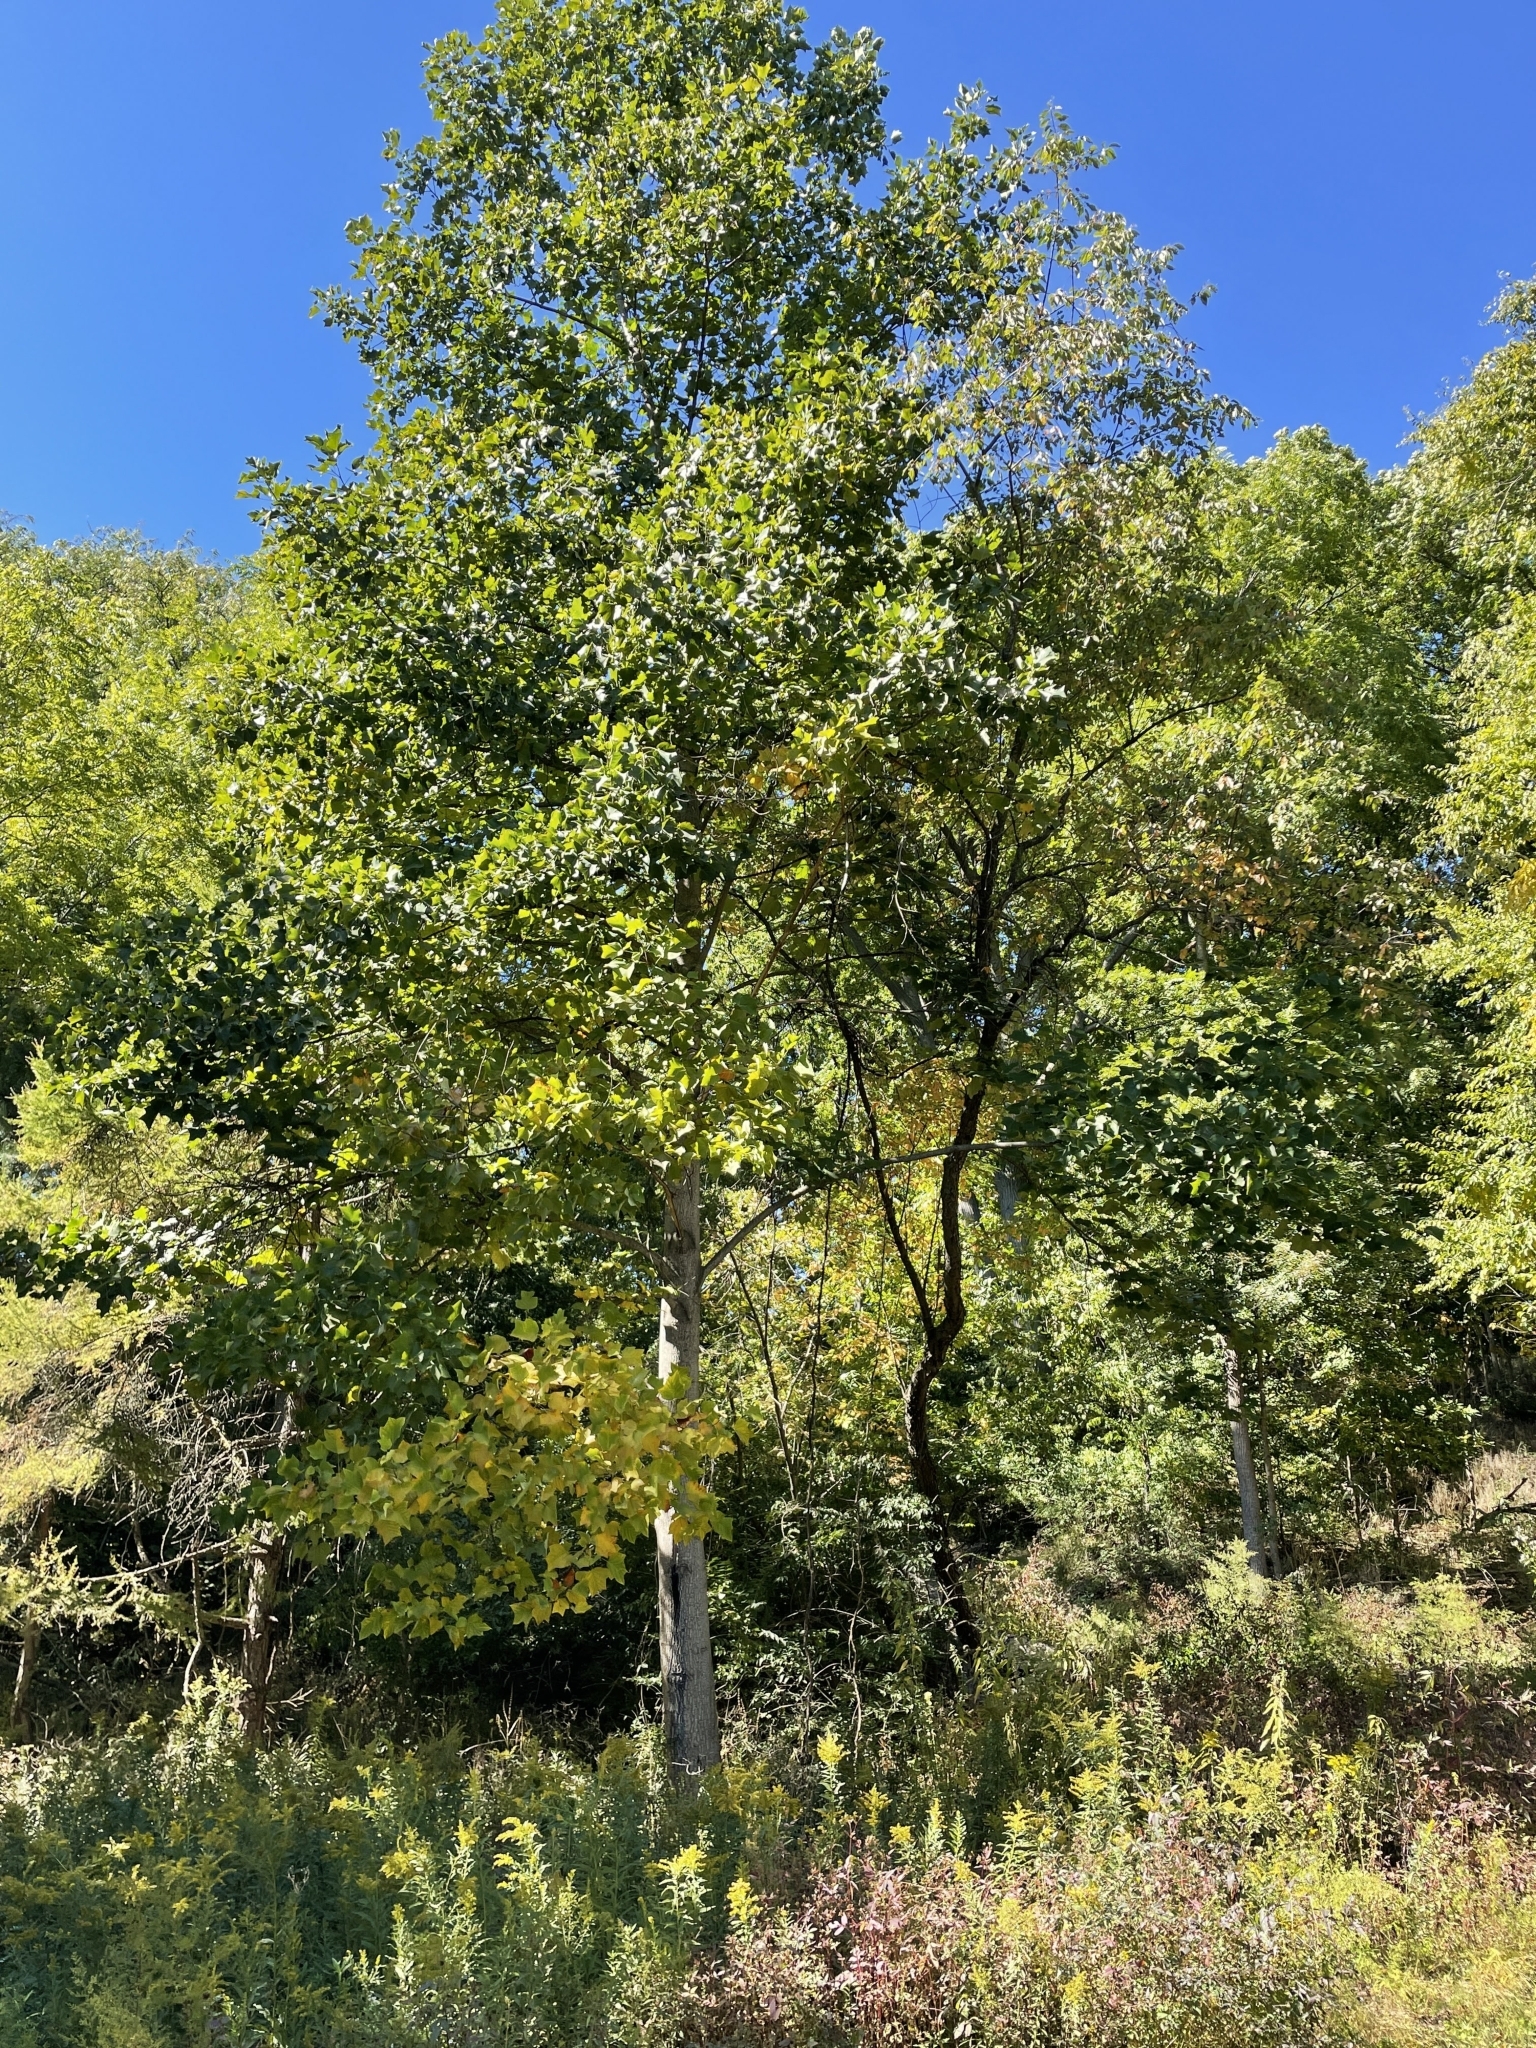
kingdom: Plantae
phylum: Tracheophyta
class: Magnoliopsida
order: Magnoliales
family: Magnoliaceae
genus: Liriodendron
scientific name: Liriodendron tulipifera
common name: Tulip tree
